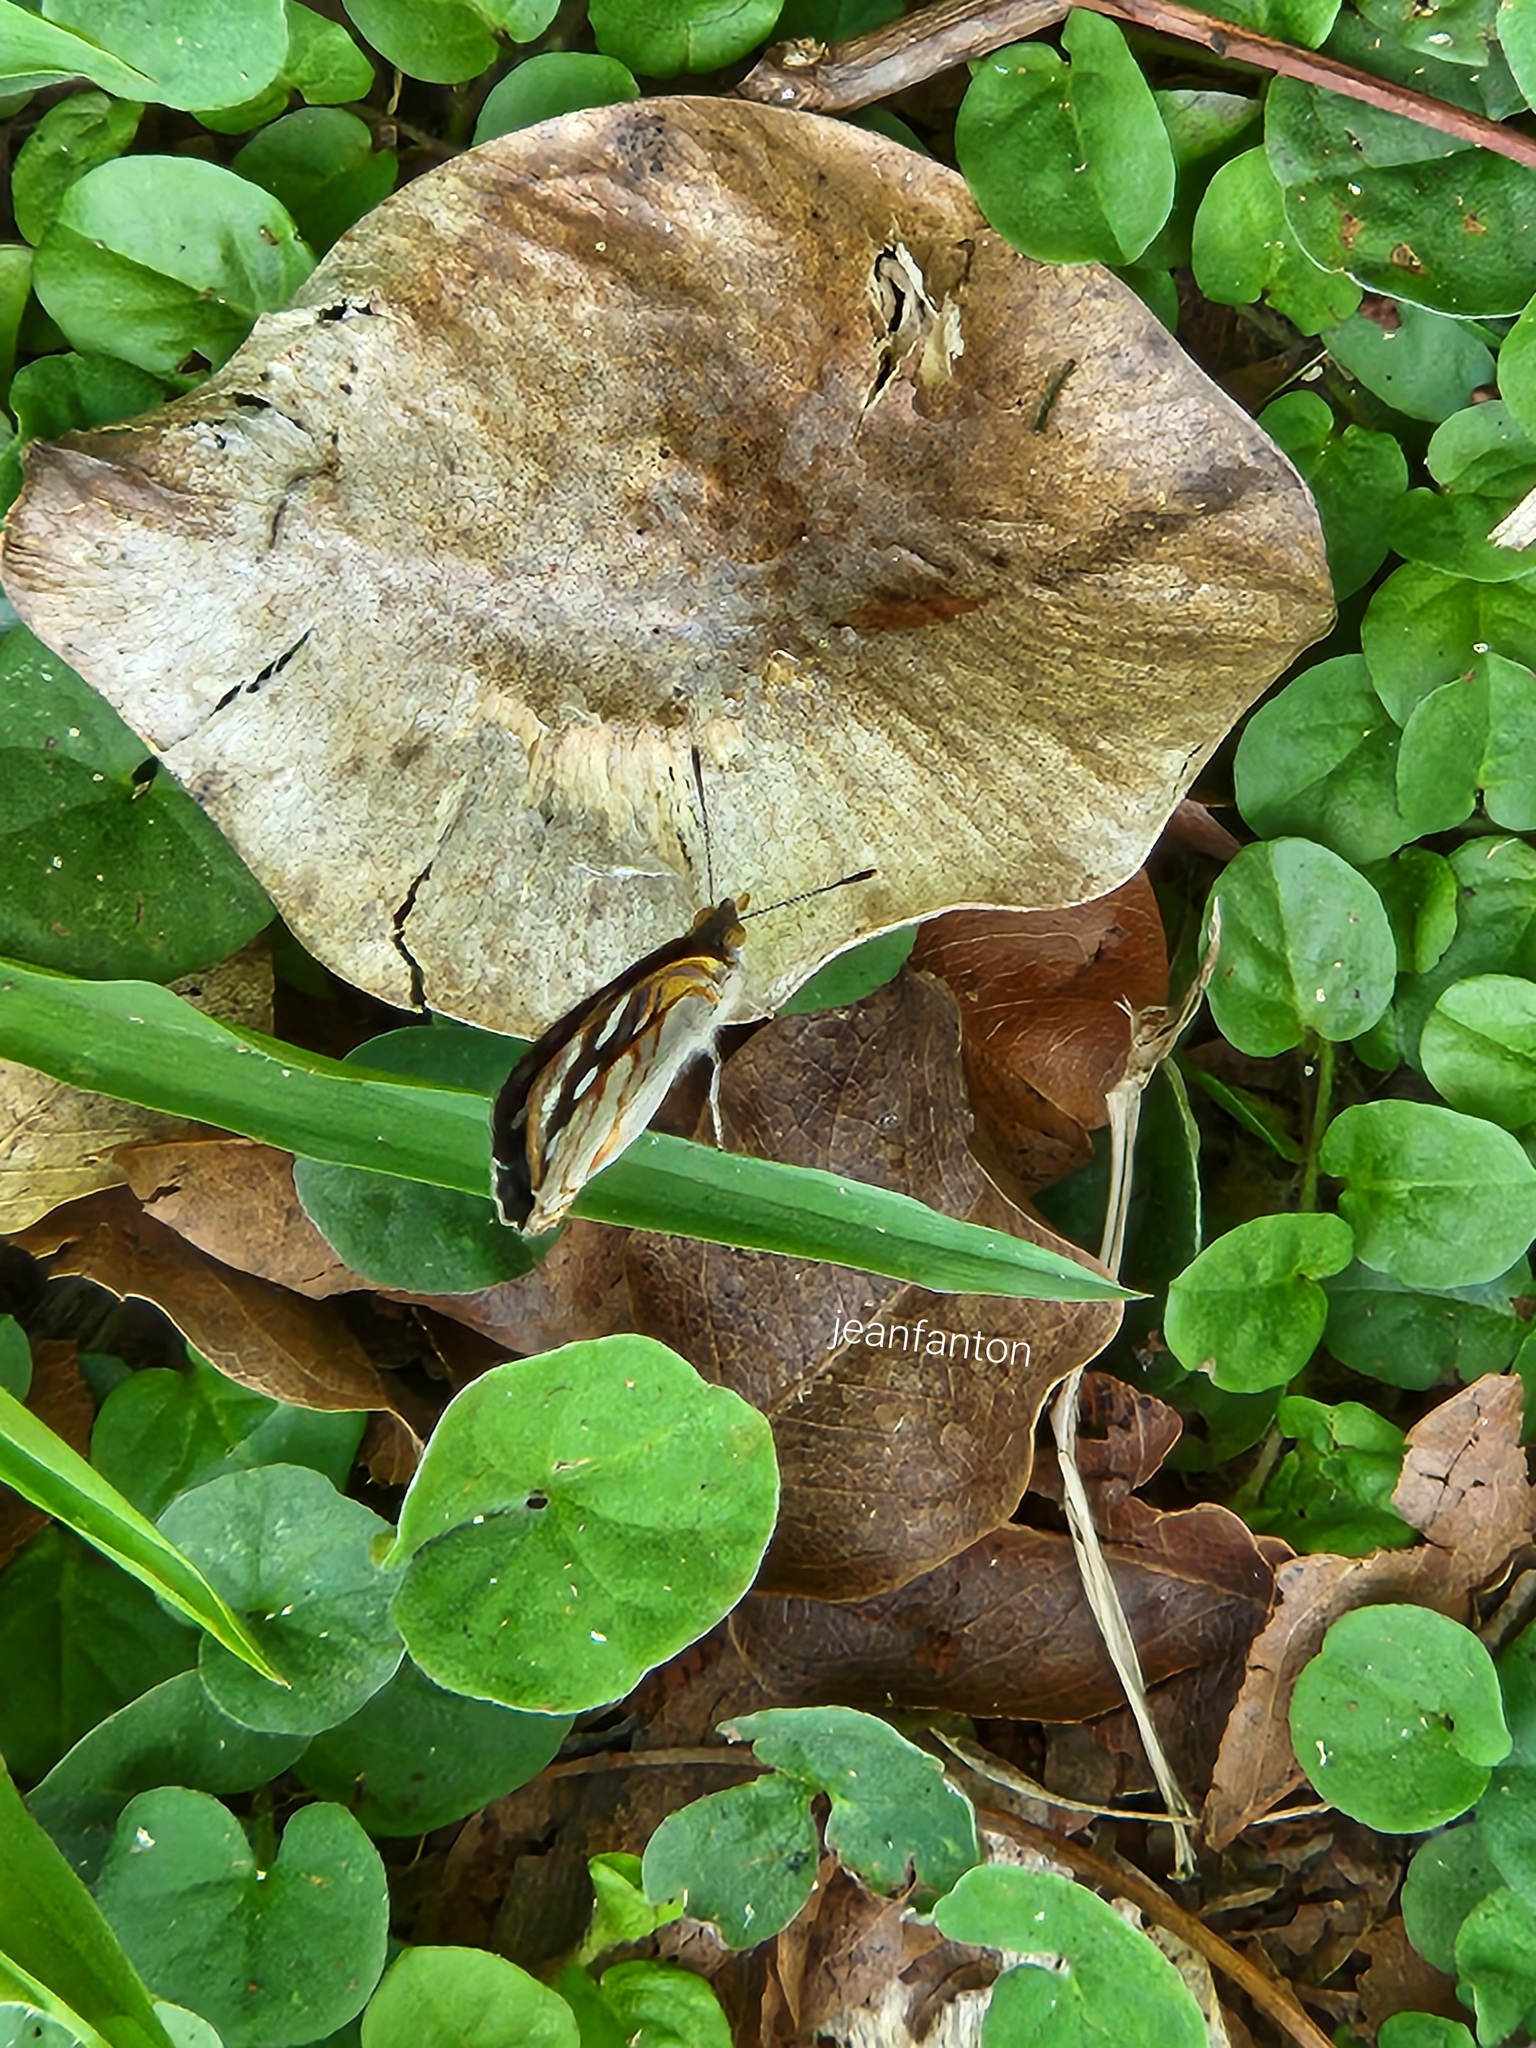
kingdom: Animalia
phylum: Arthropoda
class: Insecta
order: Lepidoptera
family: Nymphalidae
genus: Dynamine
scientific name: Dynamine tithia
